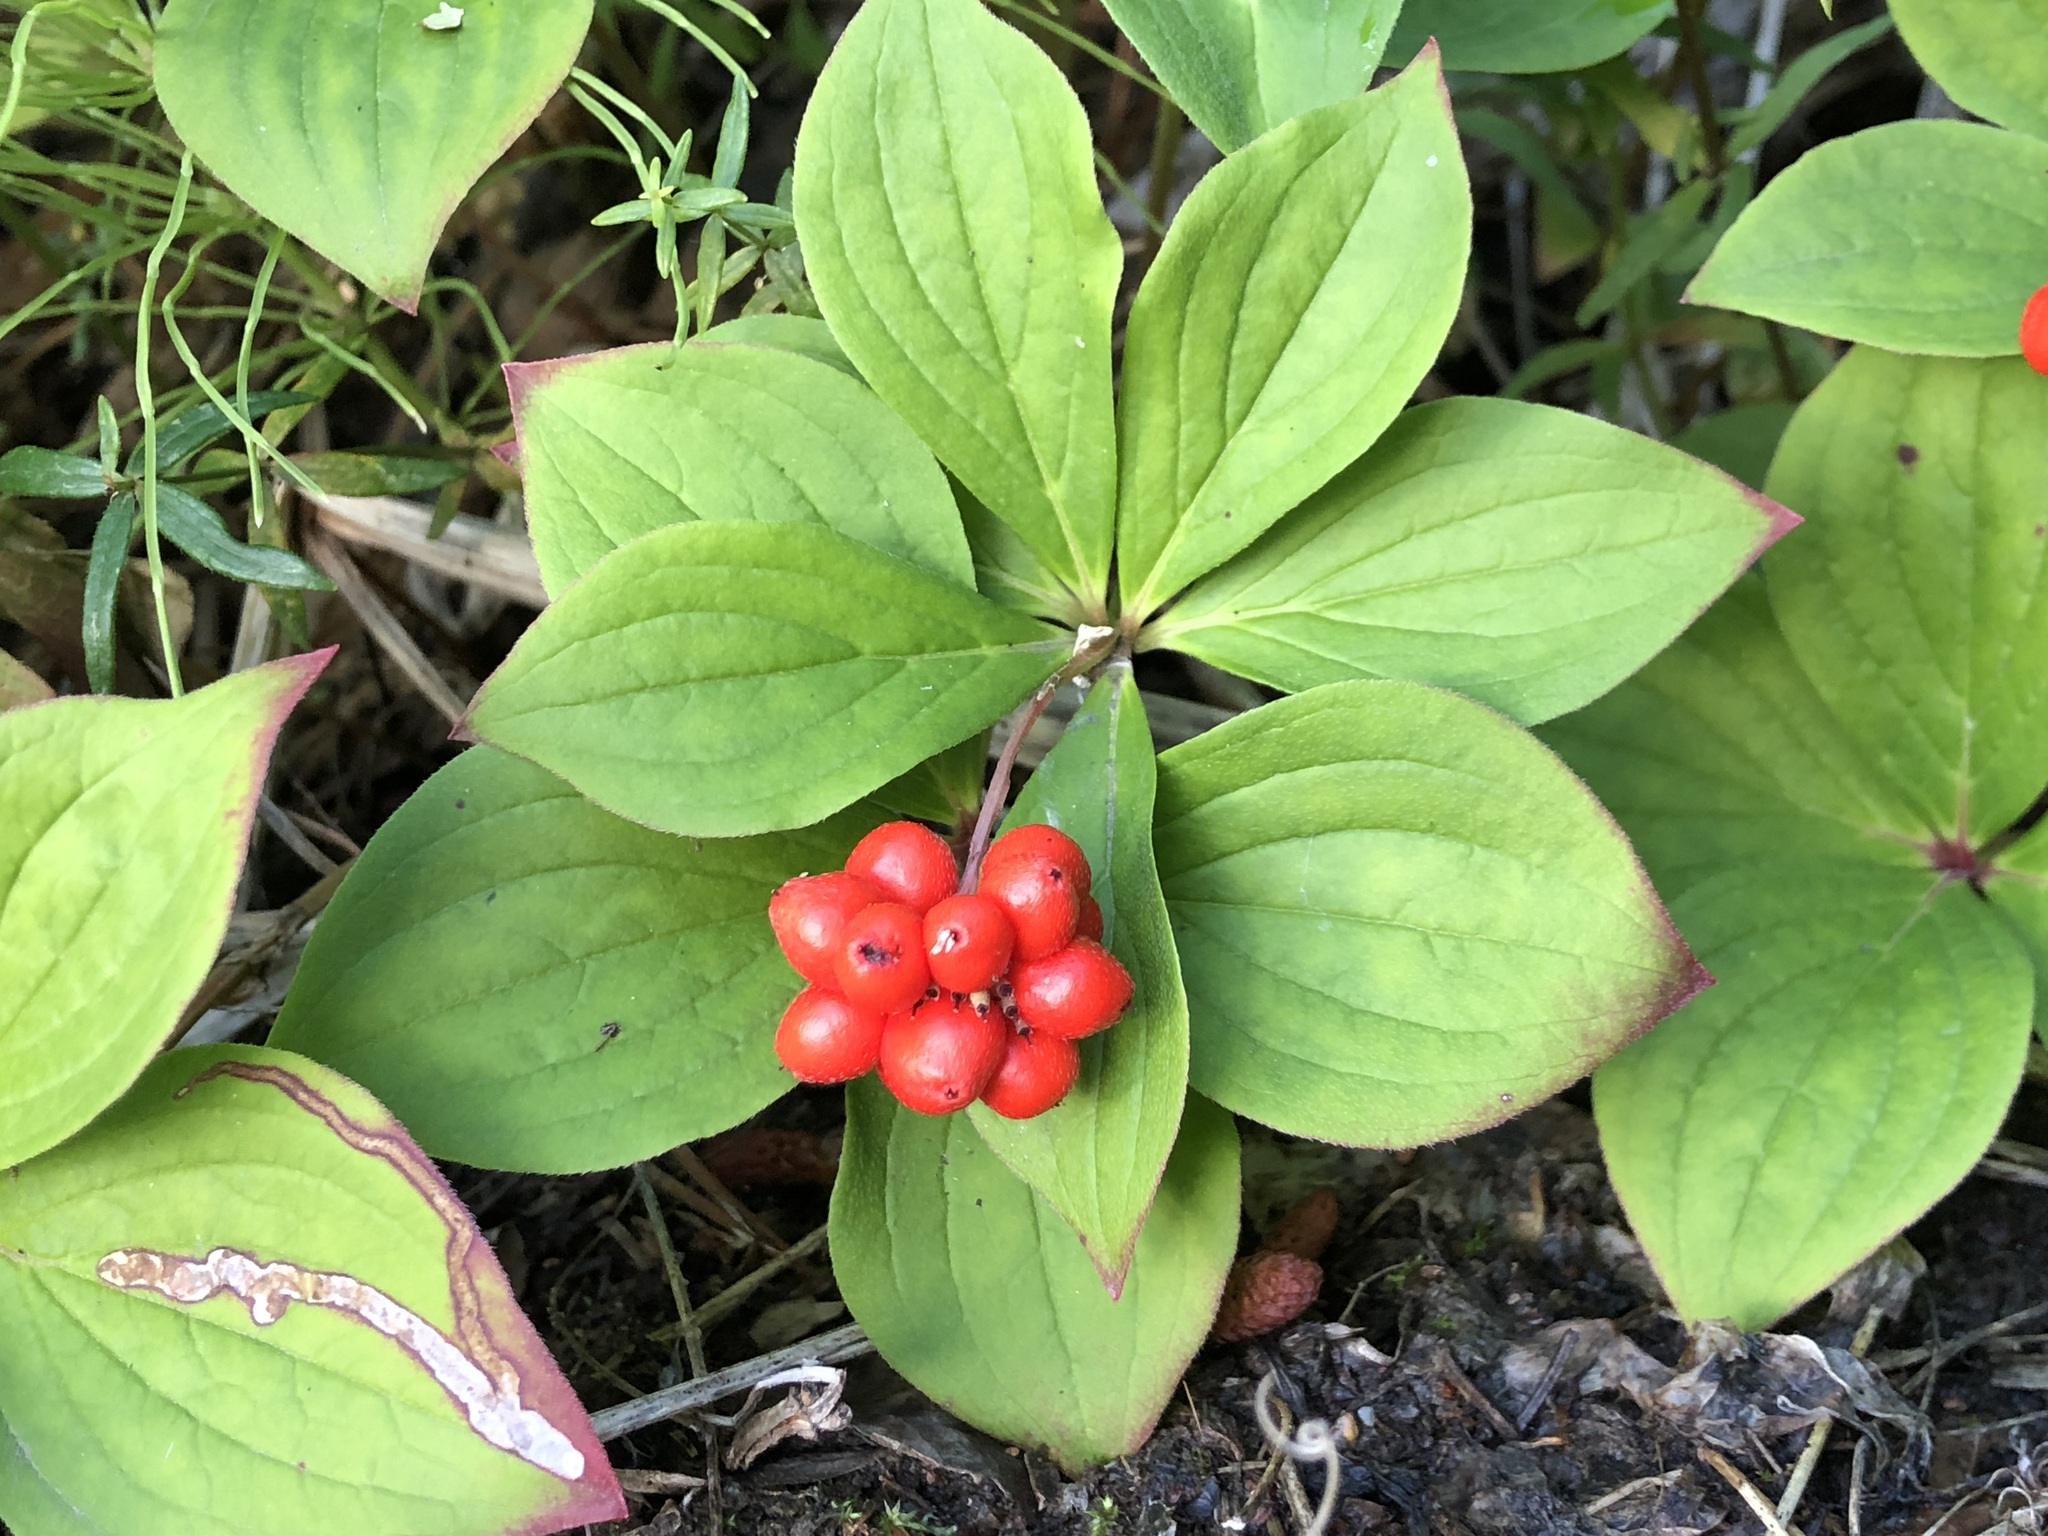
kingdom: Plantae
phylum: Tracheophyta
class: Magnoliopsida
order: Cornales
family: Cornaceae
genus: Cornus
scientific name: Cornus canadensis
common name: Creeping dogwood
